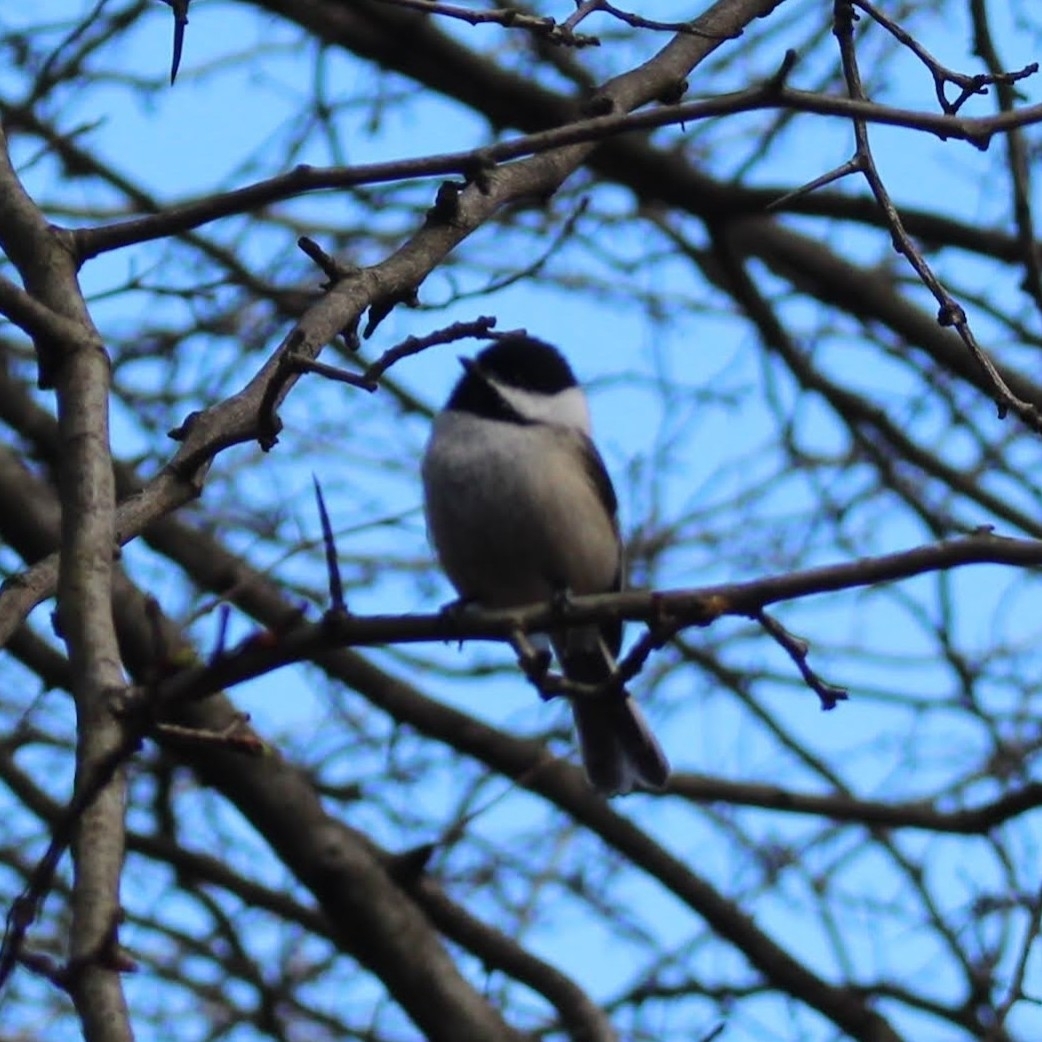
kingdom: Animalia
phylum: Chordata
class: Aves
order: Passeriformes
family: Paridae
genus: Poecile
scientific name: Poecile atricapillus
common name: Black-capped chickadee
